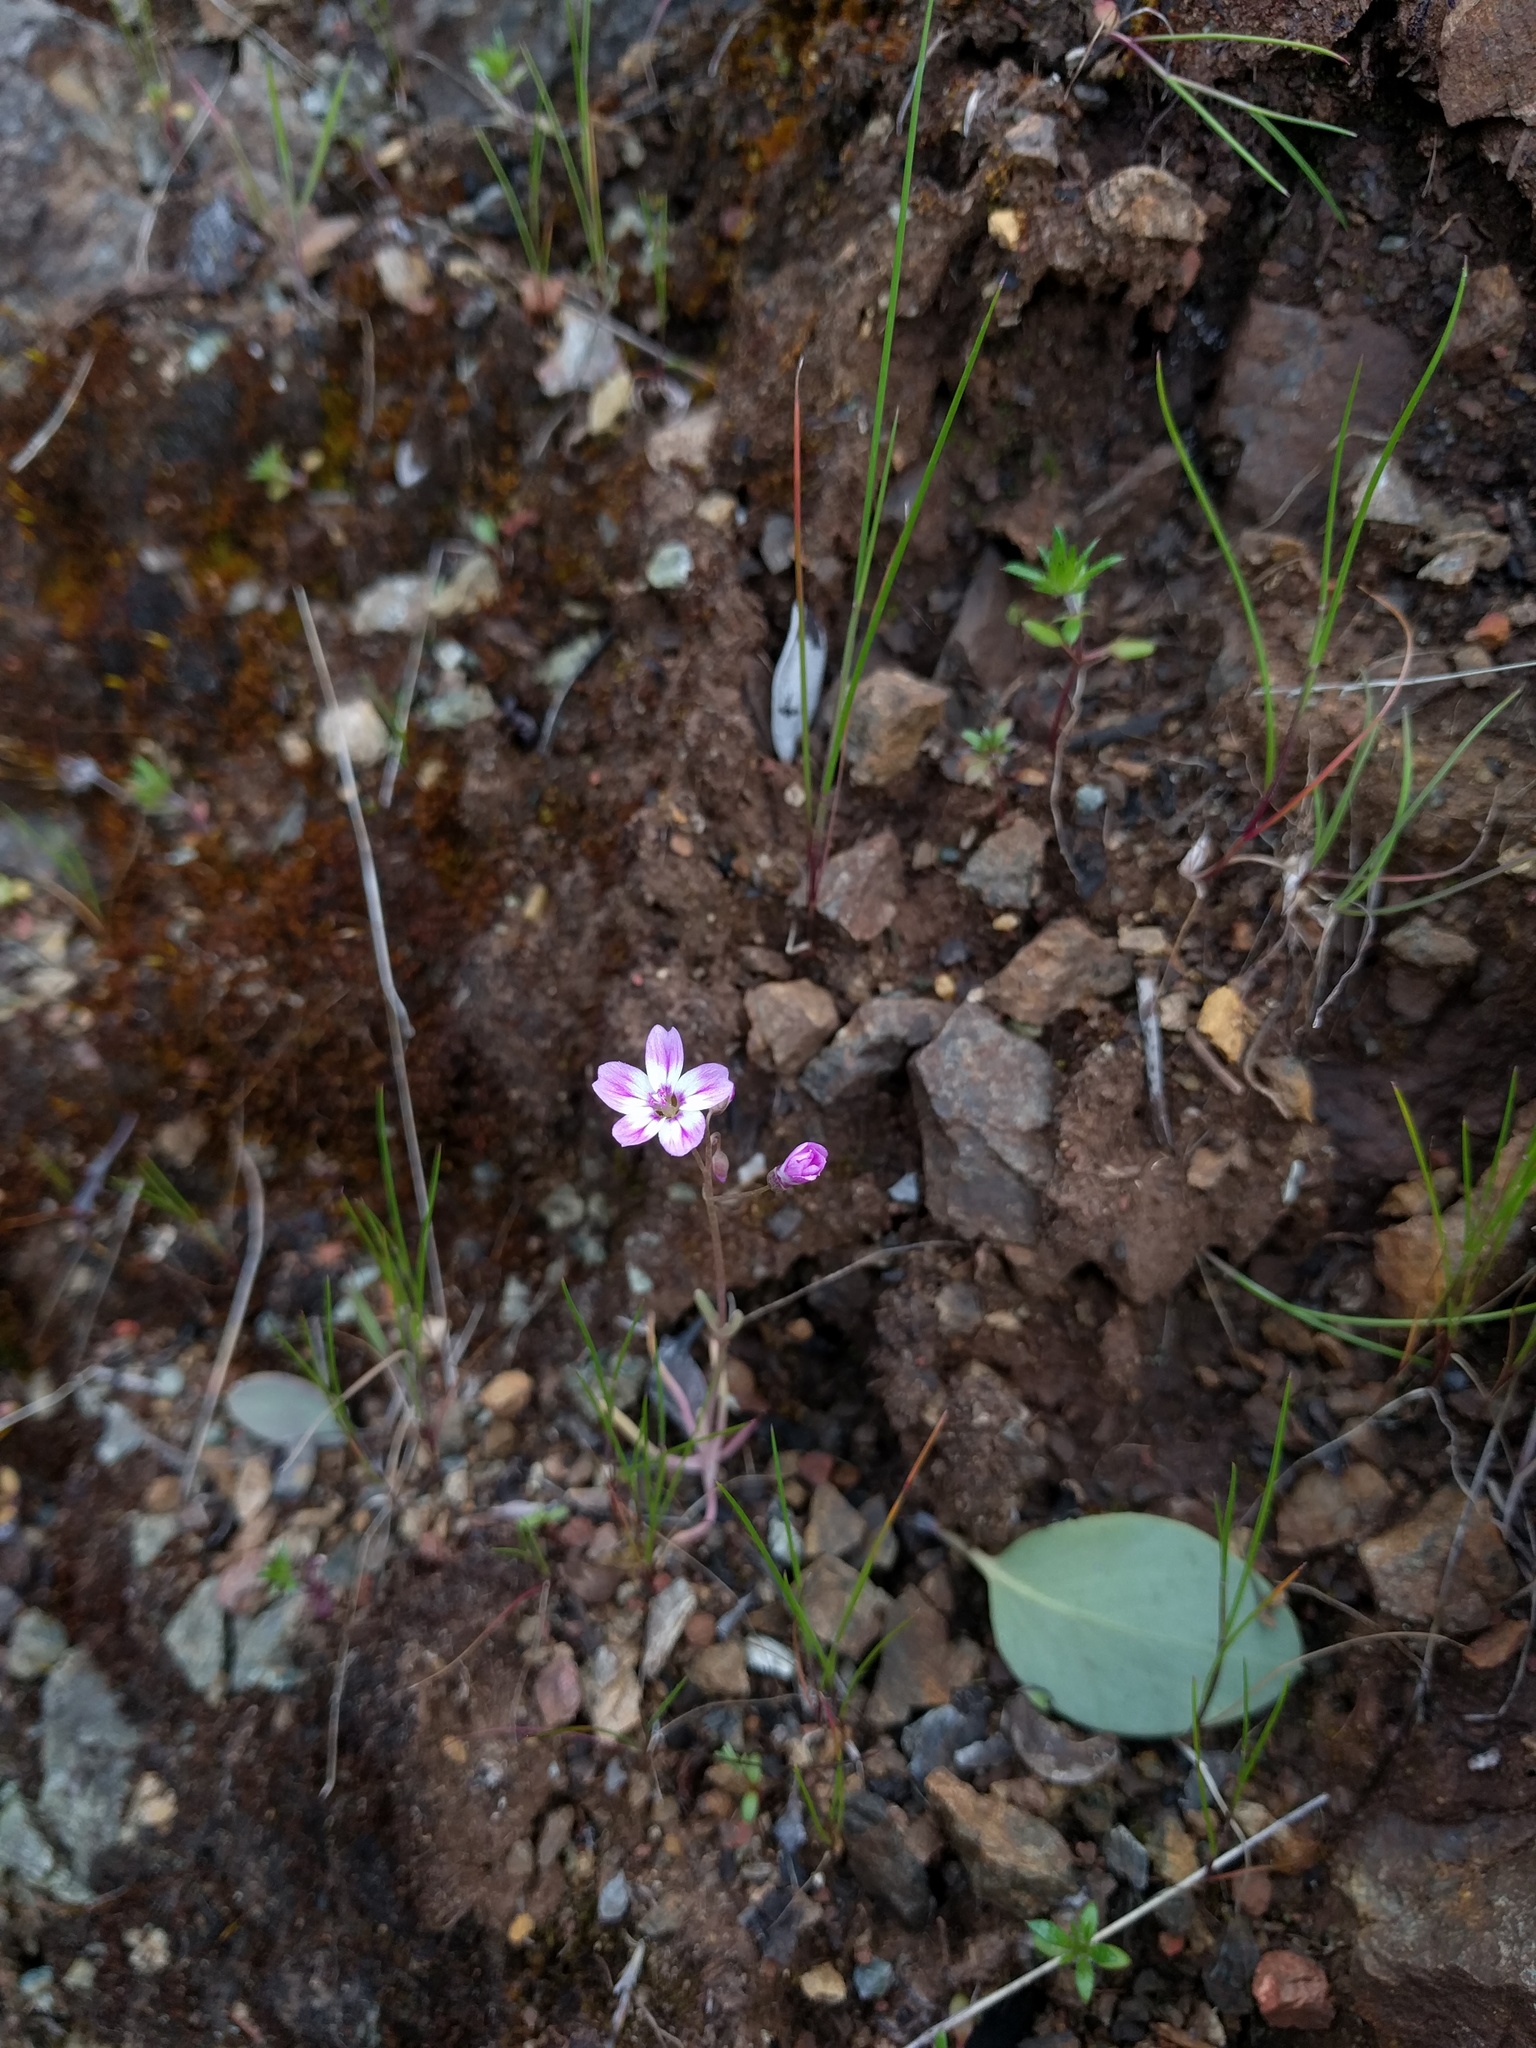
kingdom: Plantae
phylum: Tracheophyta
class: Magnoliopsida
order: Caryophyllales
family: Montiaceae
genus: Claytonia
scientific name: Claytonia gypsophiloides
